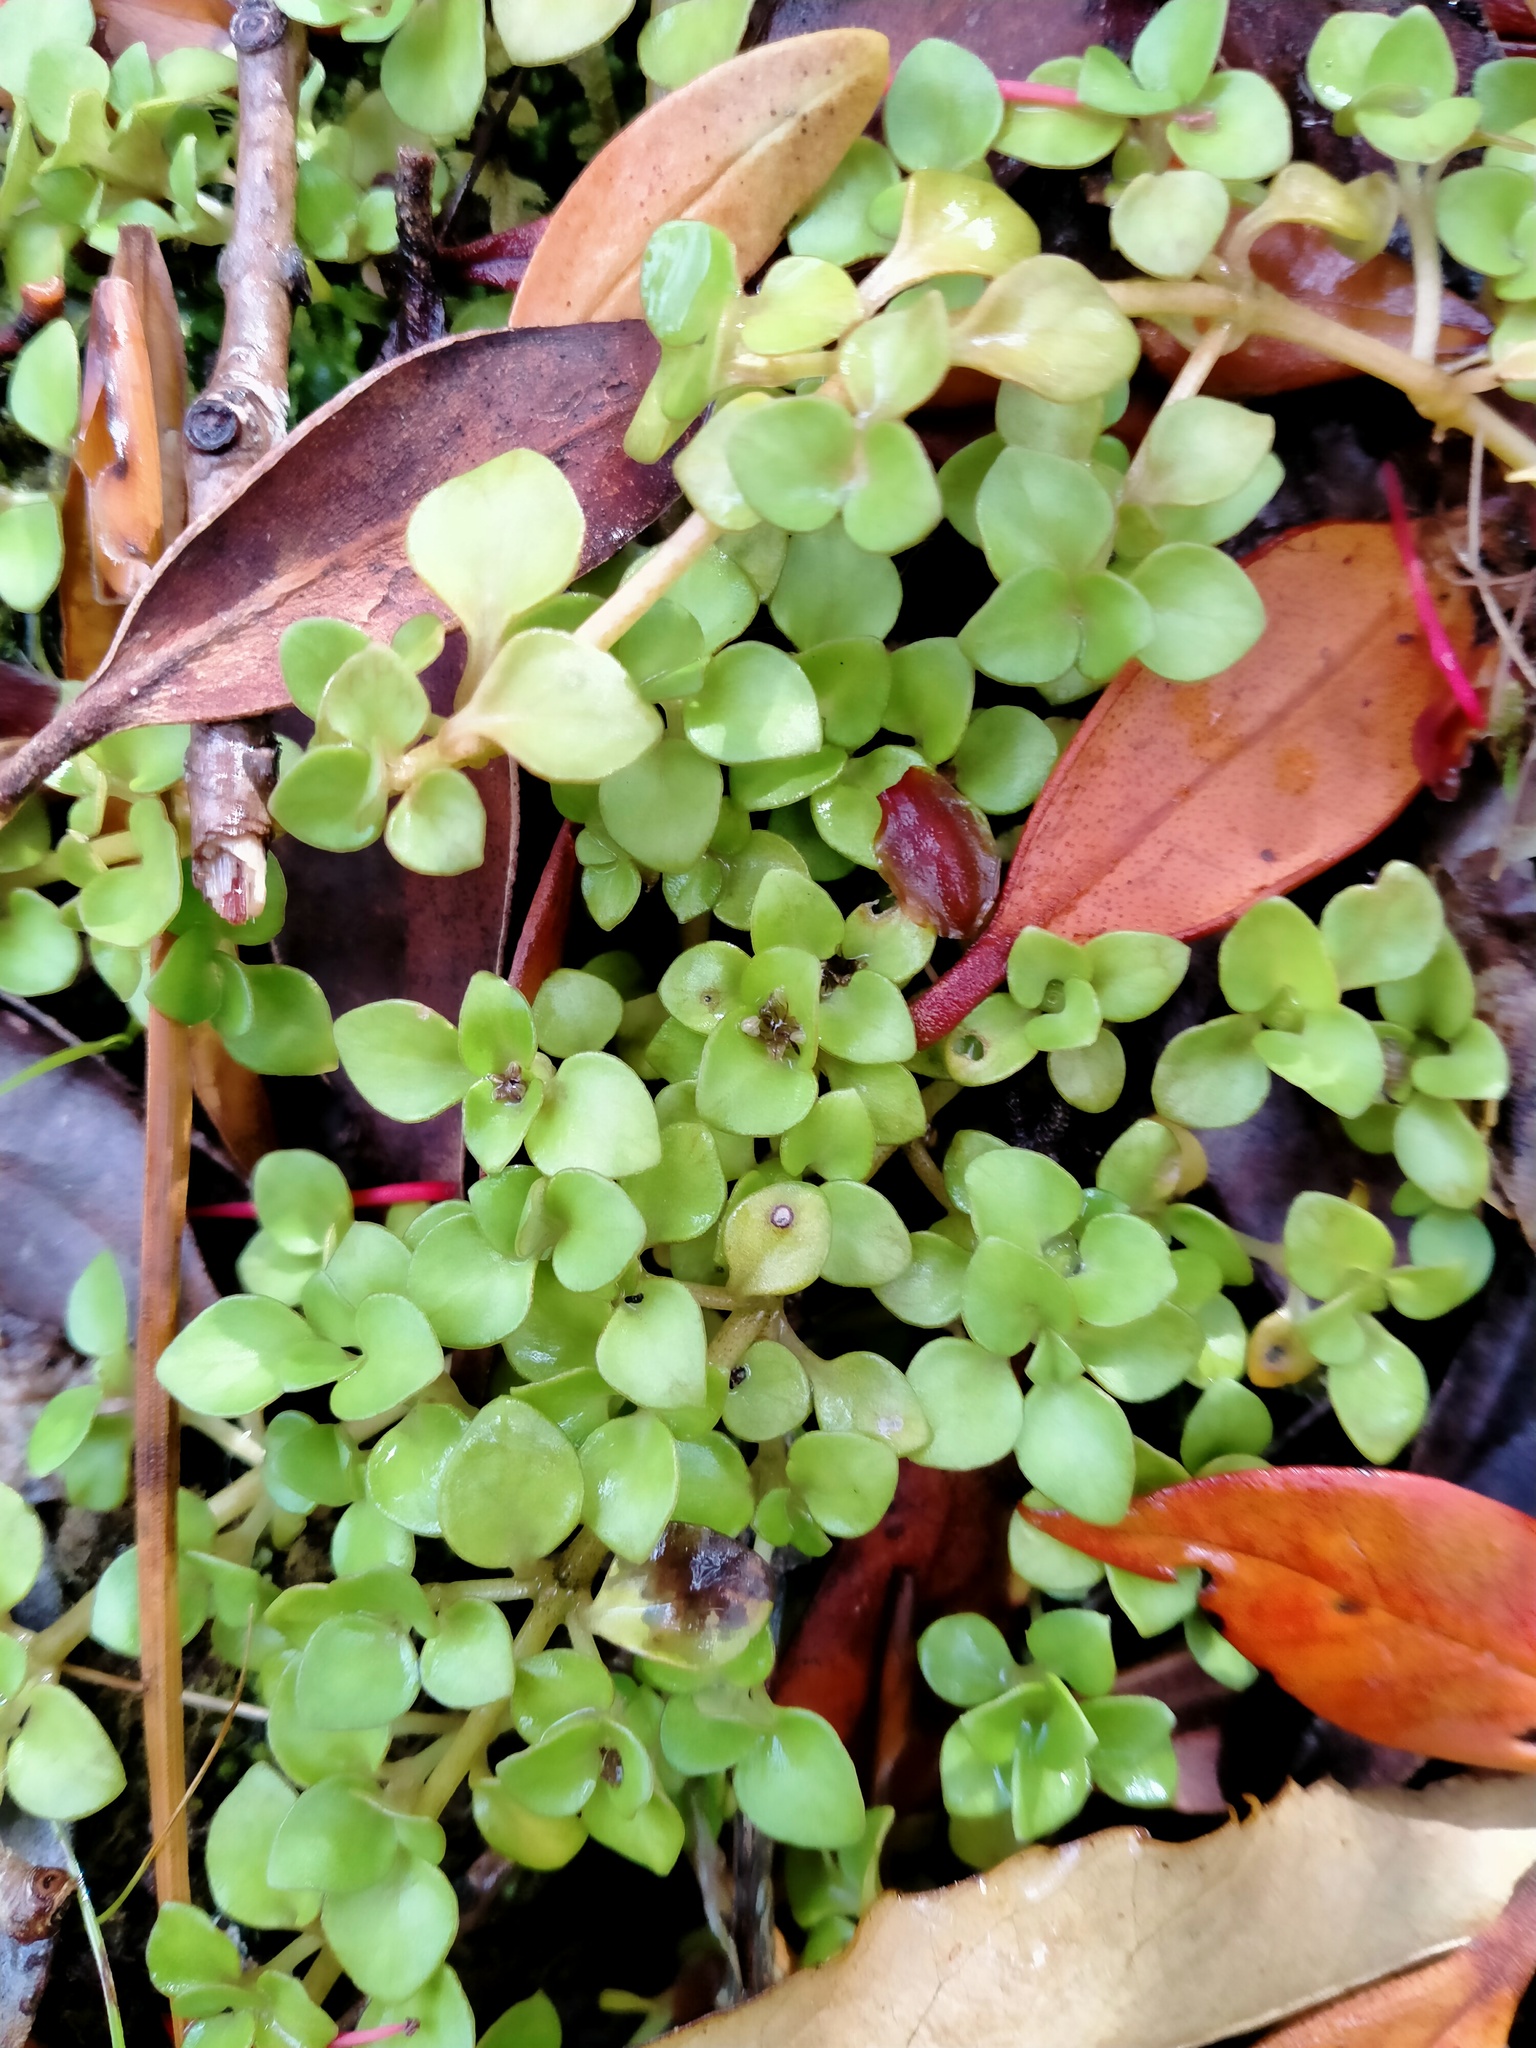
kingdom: Plantae
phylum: Tracheophyta
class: Magnoliopsida
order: Gentianales
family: Rubiaceae
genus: Nertera
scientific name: Nertera granadensis
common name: Beadplant
